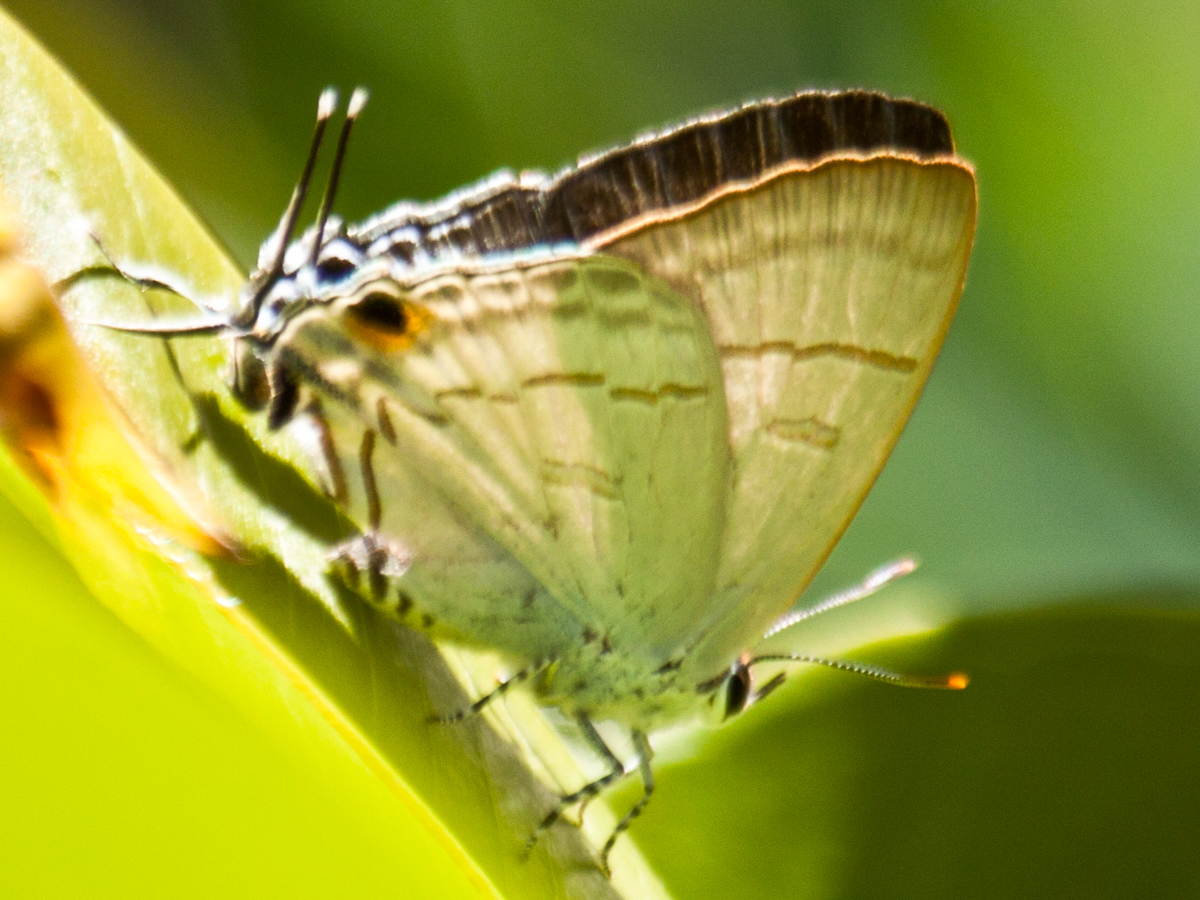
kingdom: Animalia
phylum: Arthropoda
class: Insecta
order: Lepidoptera
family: Lycaenidae
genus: Hypolycaena
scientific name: Hypolycaena erylus
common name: Common tit
